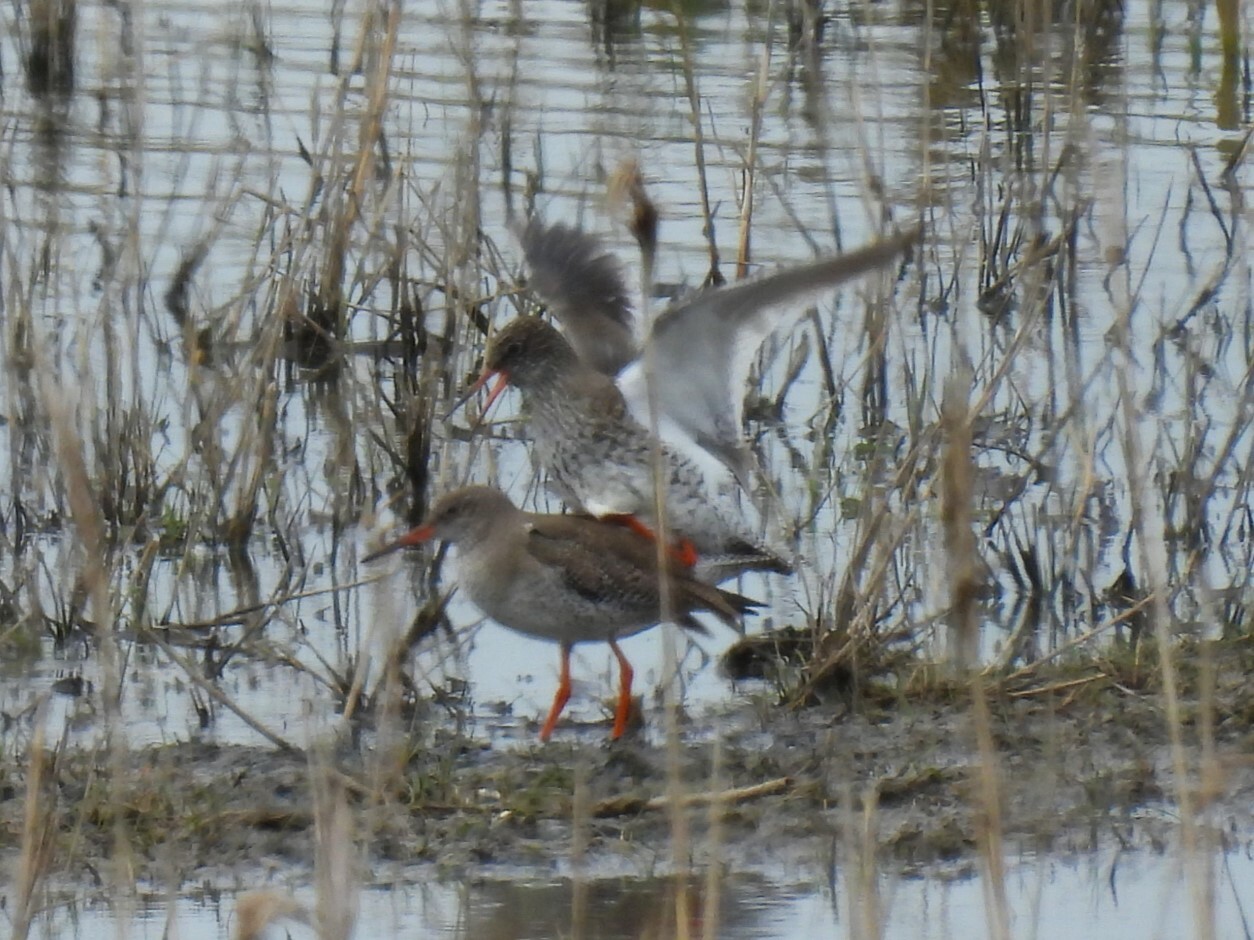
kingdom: Animalia
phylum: Chordata
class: Aves
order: Charadriiformes
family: Scolopacidae
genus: Tringa
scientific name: Tringa totanus
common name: Common redshank
